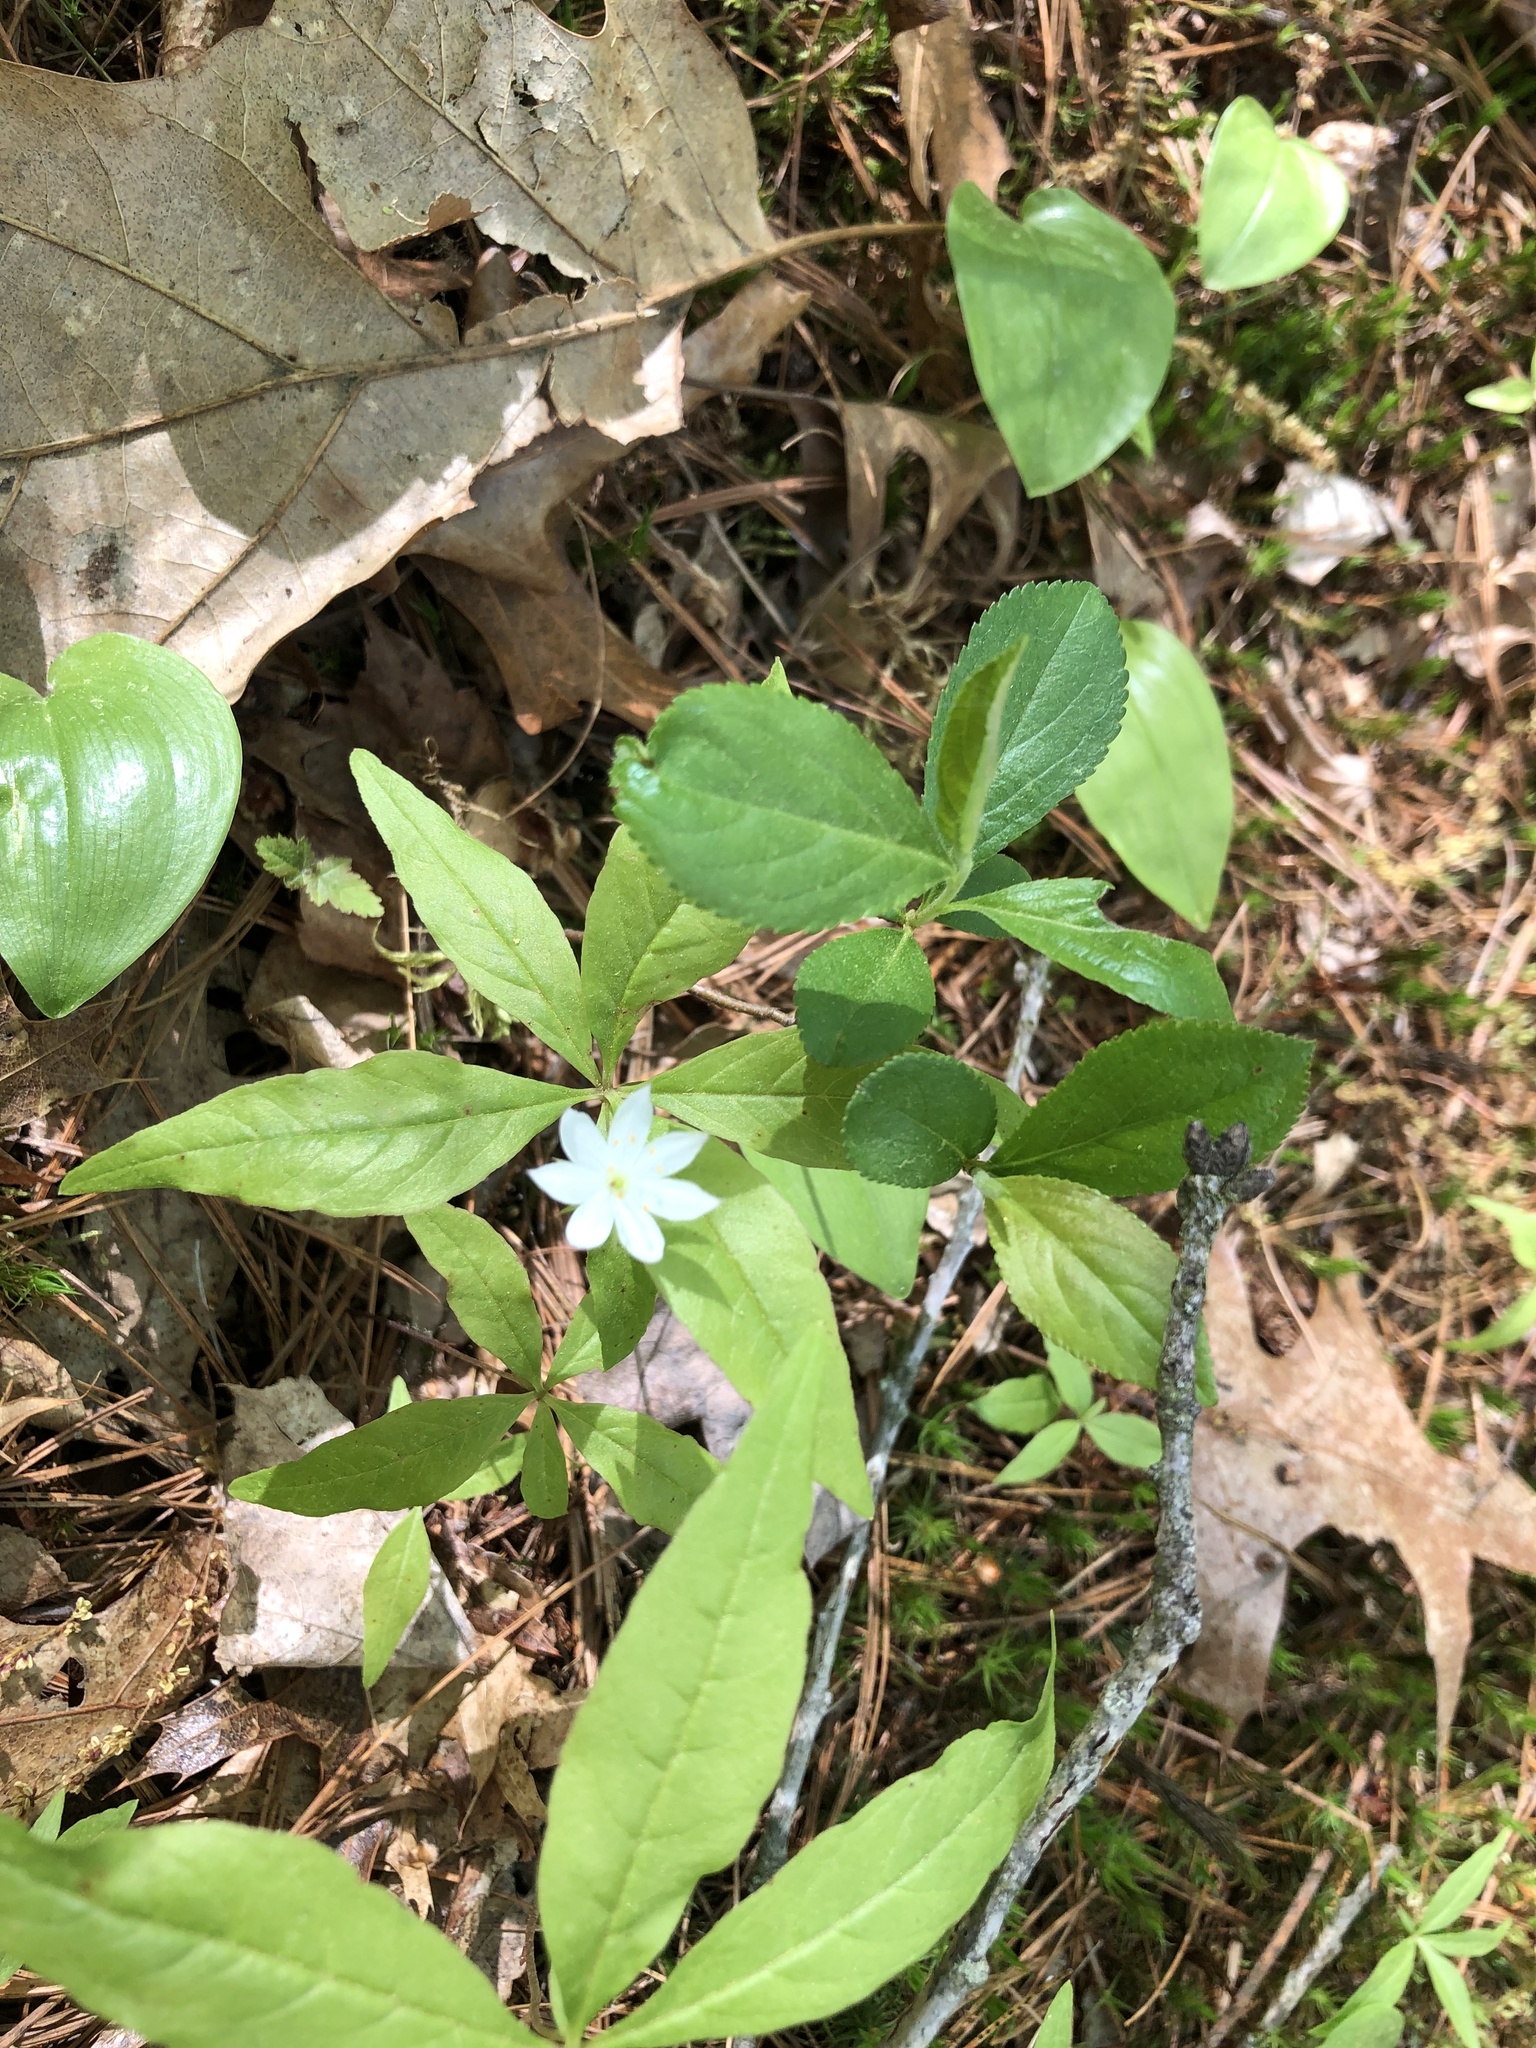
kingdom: Plantae
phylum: Tracheophyta
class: Magnoliopsida
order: Ericales
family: Primulaceae
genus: Lysimachia
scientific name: Lysimachia borealis
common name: American starflower
